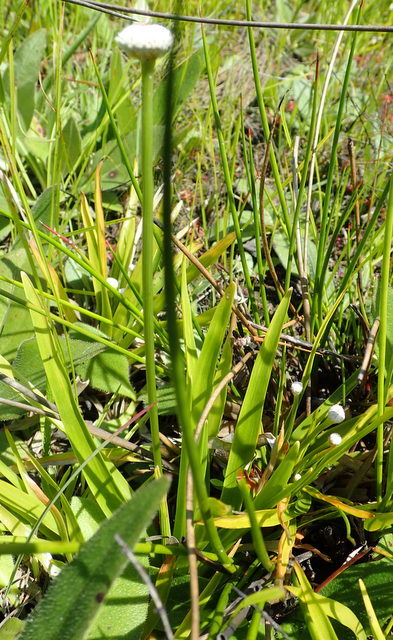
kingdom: Plantae
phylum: Tracheophyta
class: Liliopsida
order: Poales
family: Eriocaulaceae
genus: Eriocaulon
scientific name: Eriocaulon decangulare
